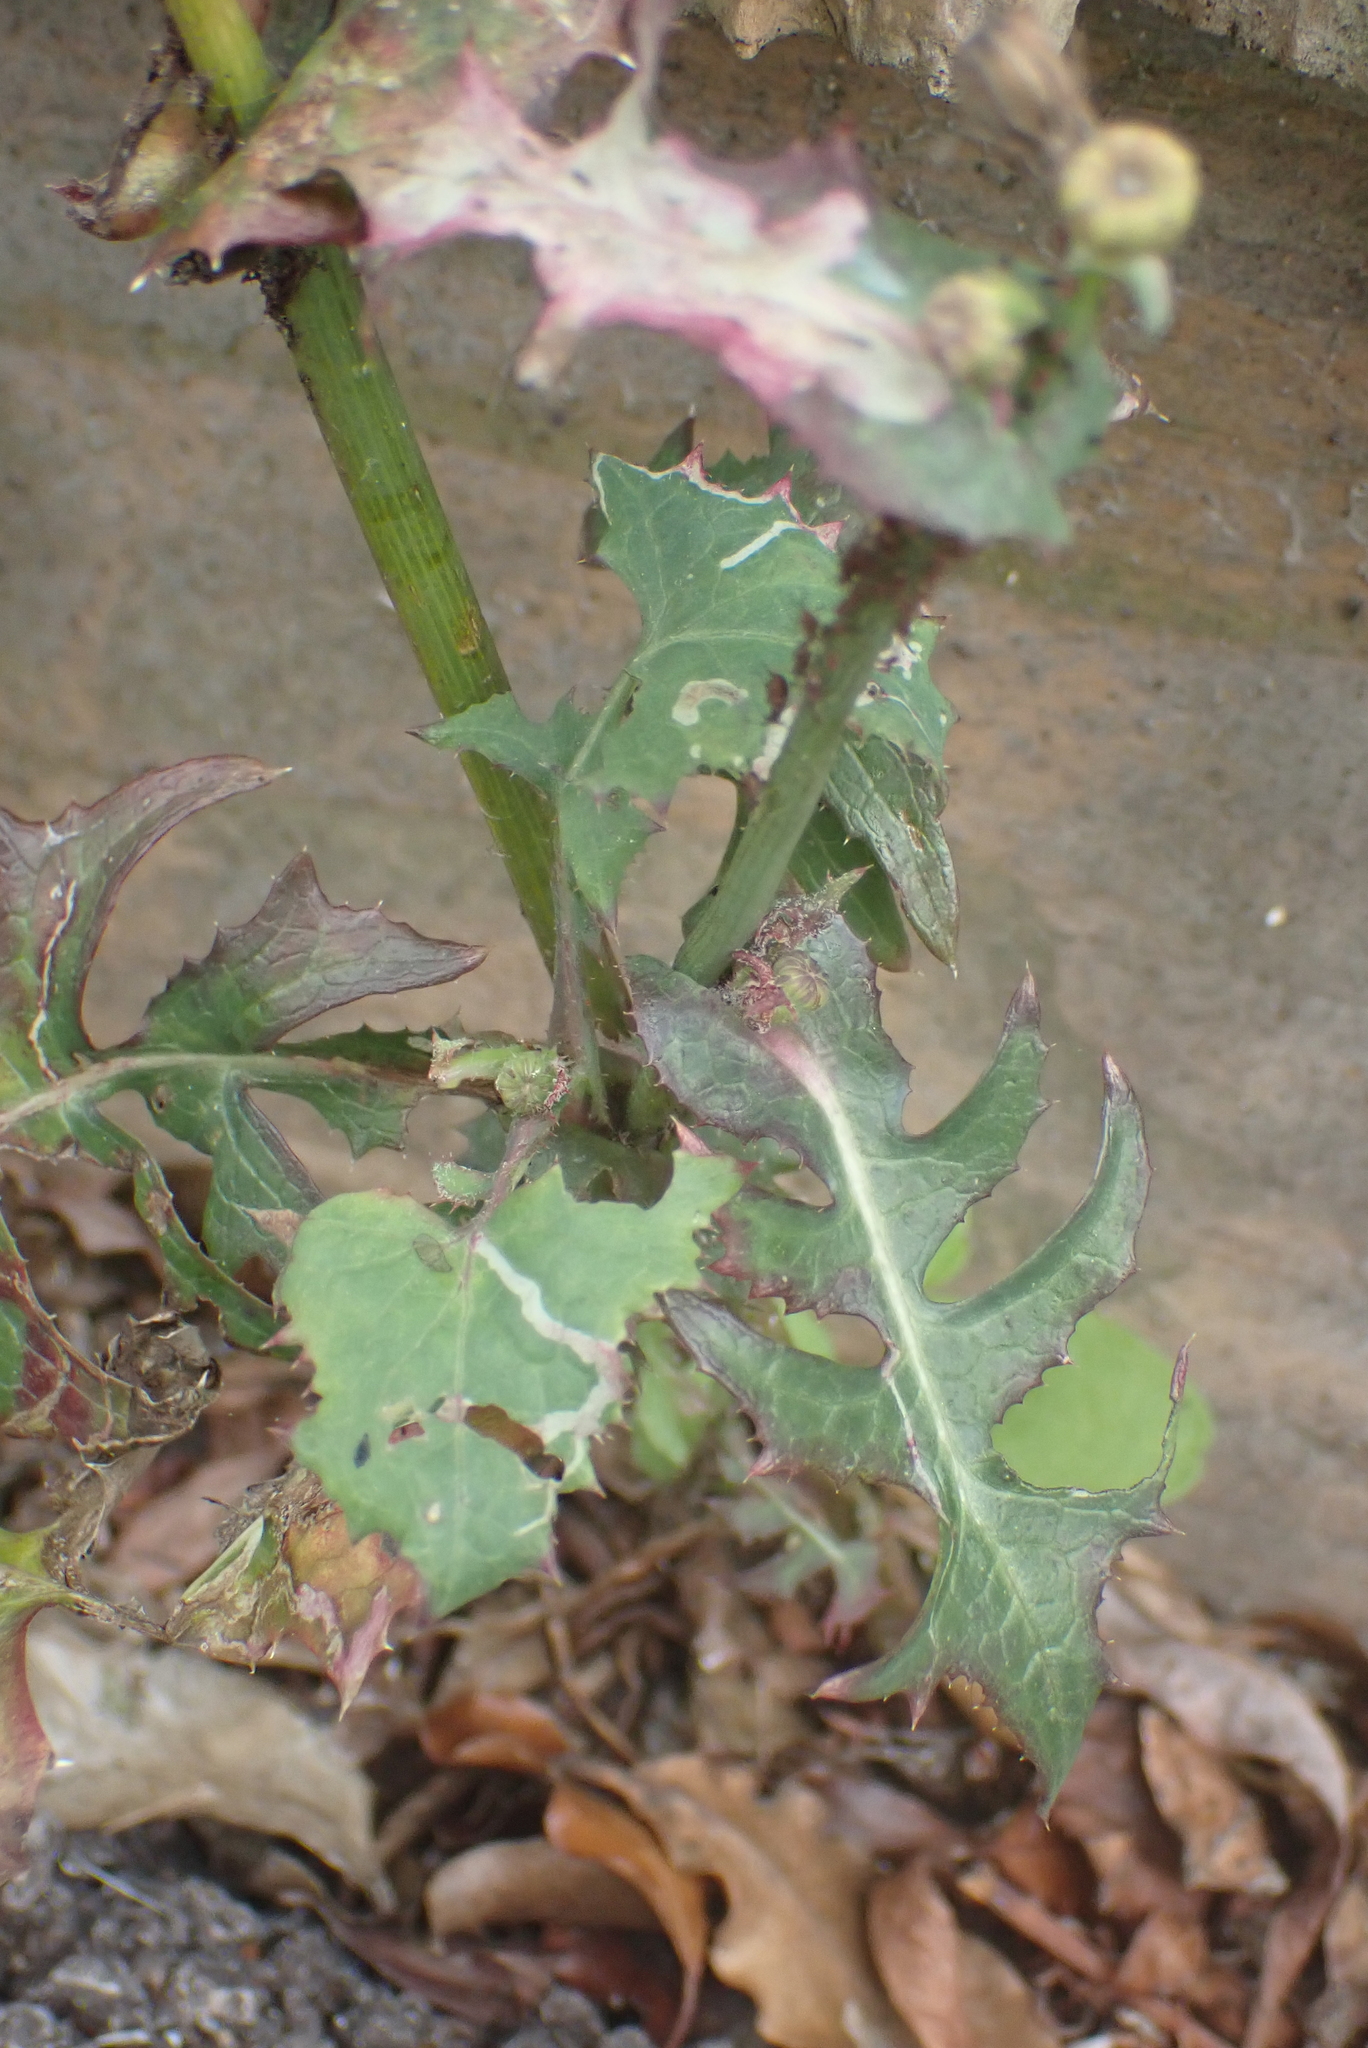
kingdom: Plantae
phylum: Tracheophyta
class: Magnoliopsida
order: Asterales
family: Asteraceae
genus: Sonchus
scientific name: Sonchus oleraceus
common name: Common sowthistle
